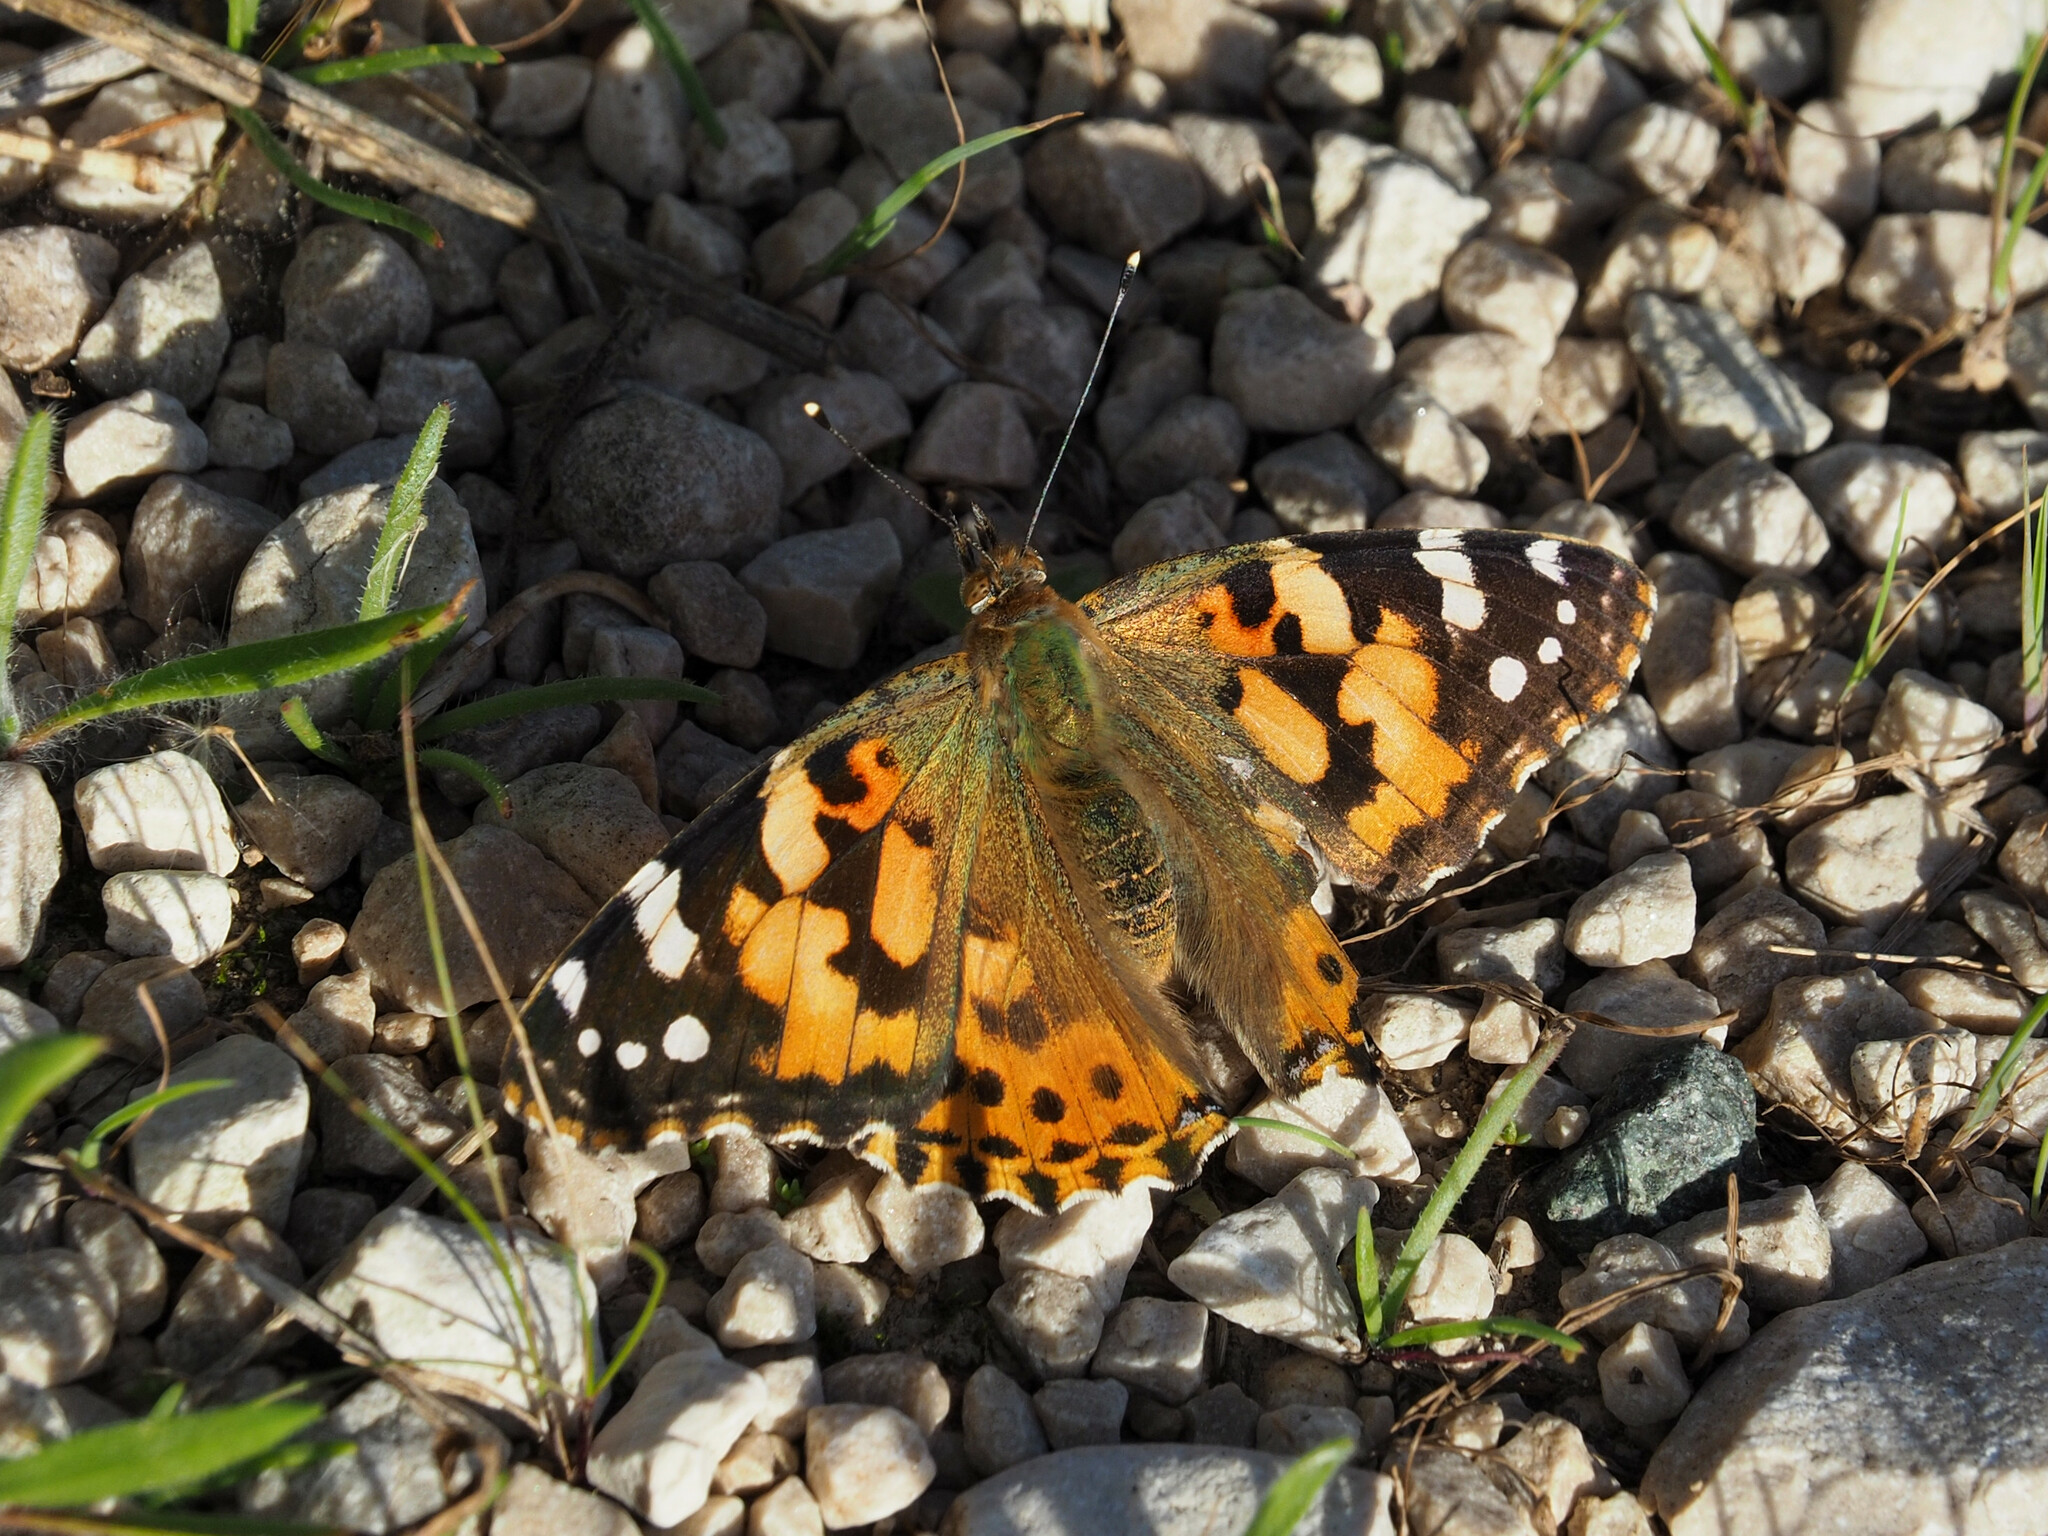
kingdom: Animalia
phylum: Arthropoda
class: Insecta
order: Lepidoptera
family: Nymphalidae
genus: Vanessa
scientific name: Vanessa cardui
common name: Painted lady
